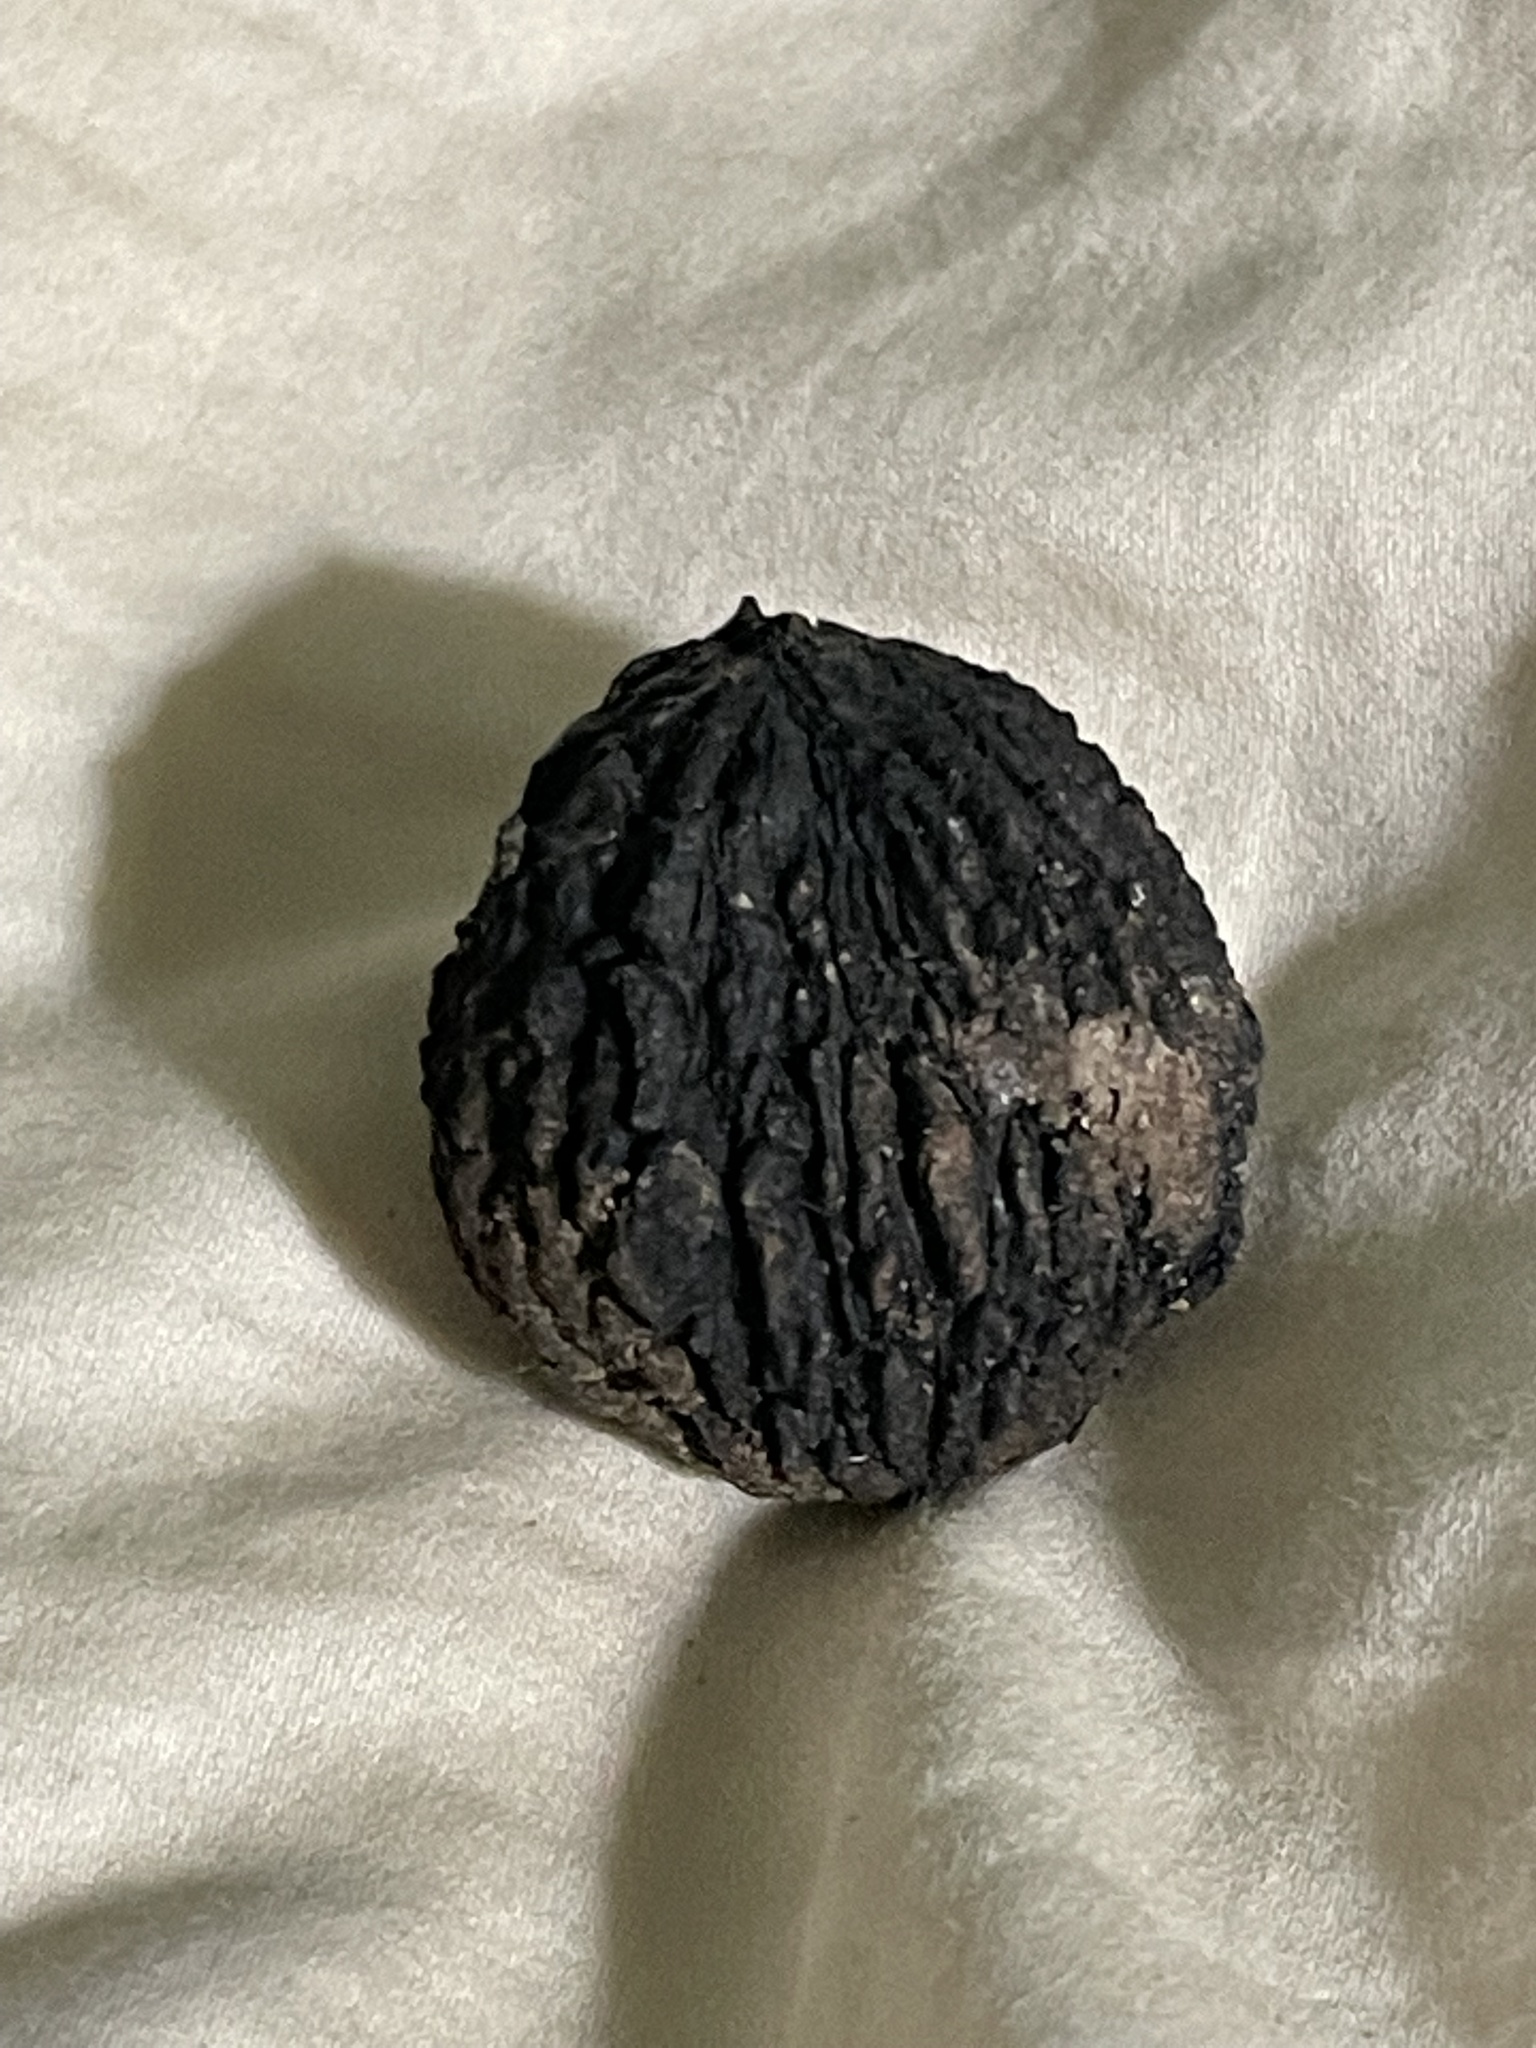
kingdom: Plantae
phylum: Tracheophyta
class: Magnoliopsida
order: Fagales
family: Juglandaceae
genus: Juglans
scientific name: Juglans major
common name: Arizona walnut
